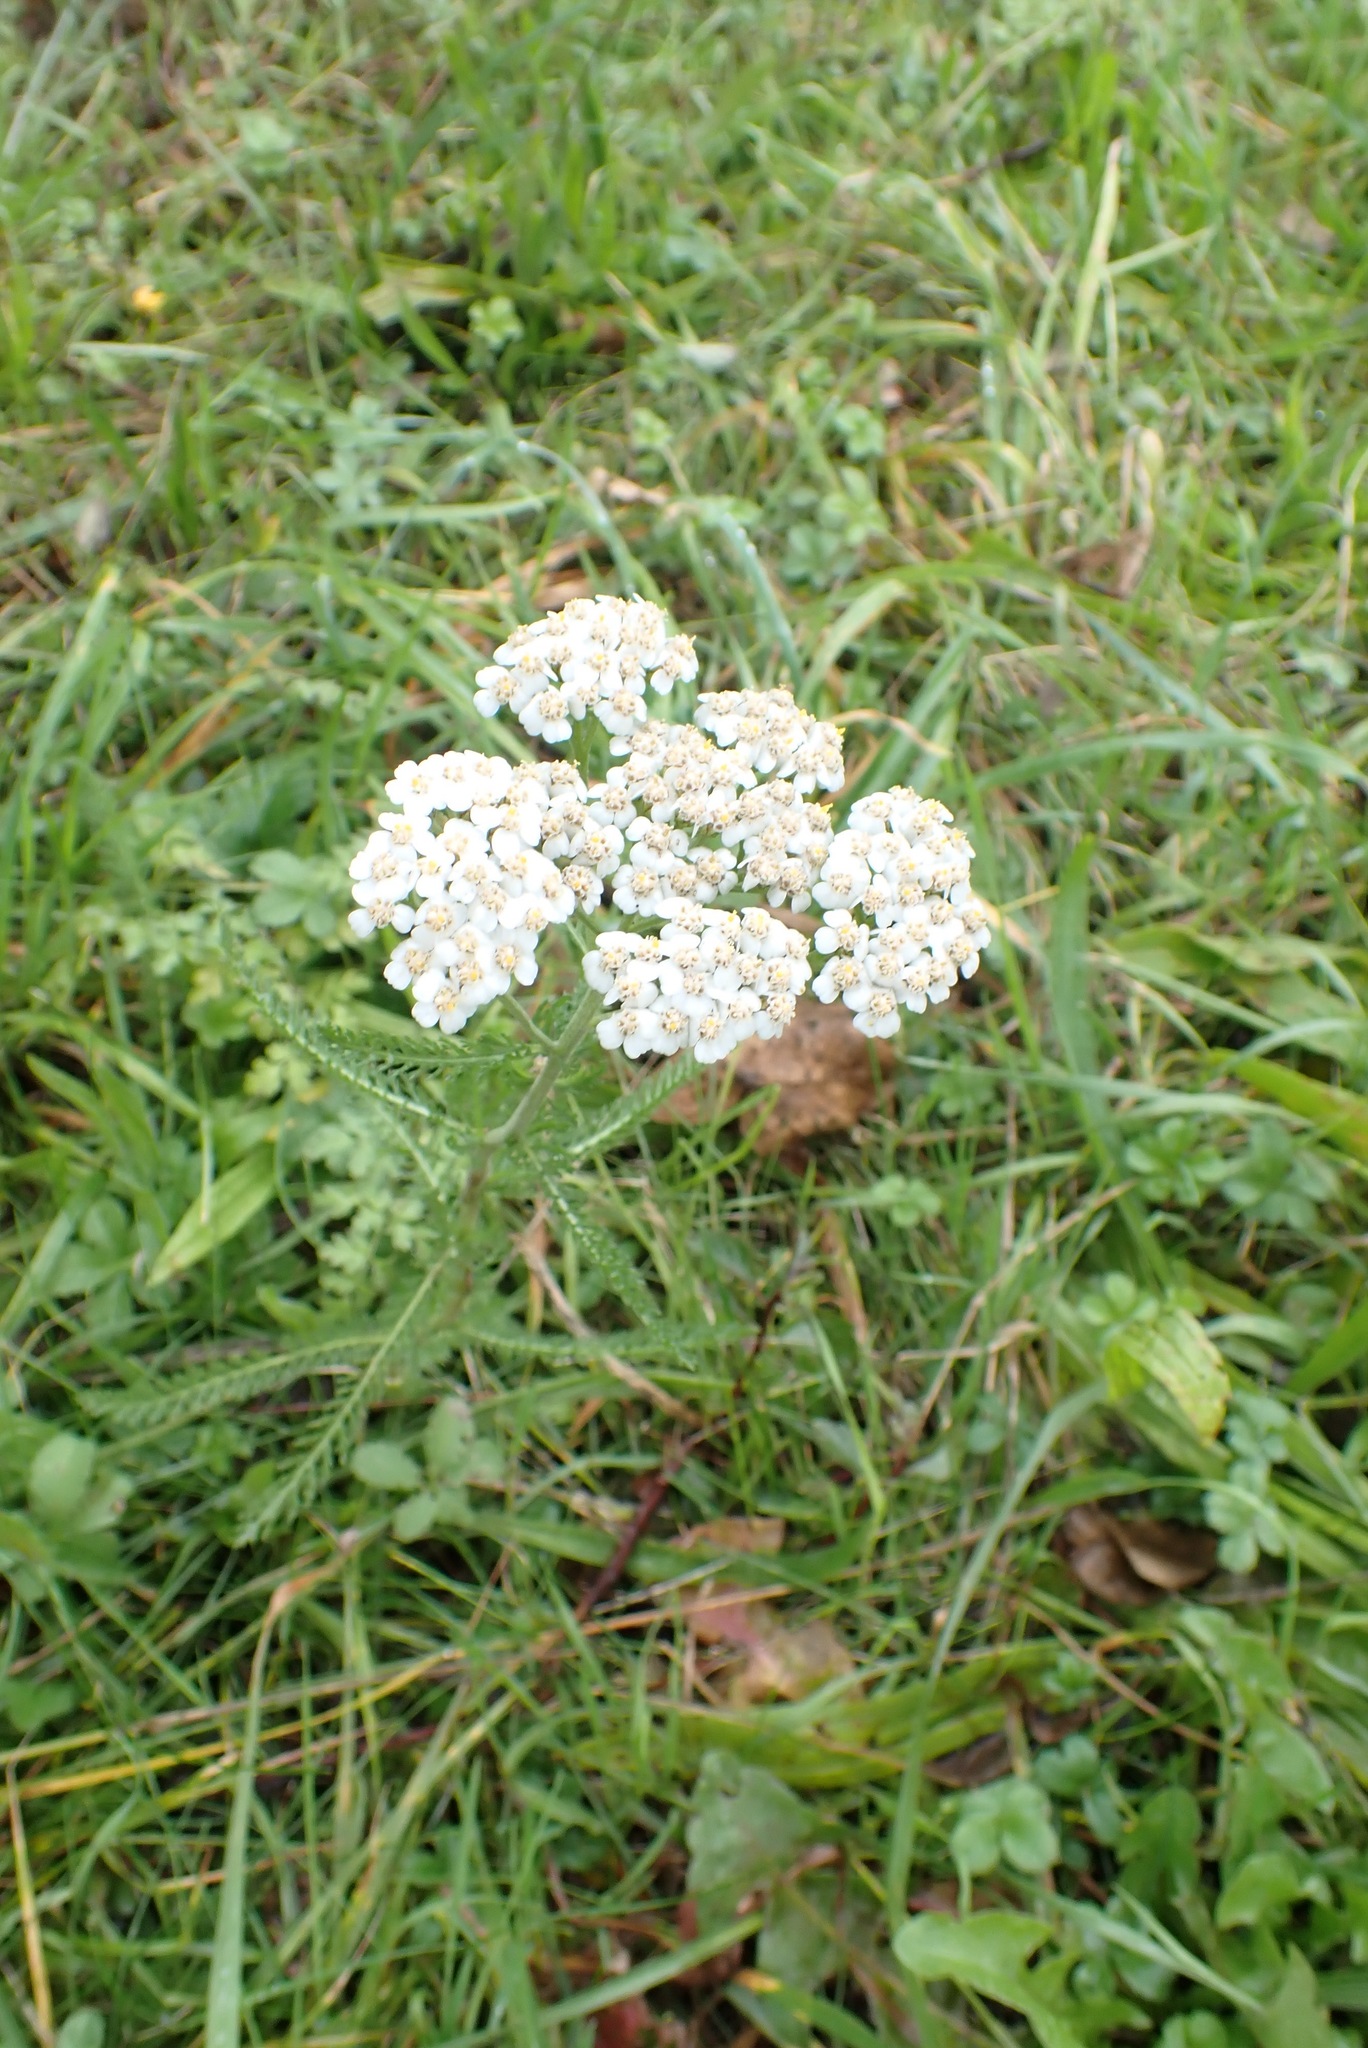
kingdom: Plantae
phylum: Tracheophyta
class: Magnoliopsida
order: Asterales
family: Asteraceae
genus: Achillea
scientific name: Achillea millefolium
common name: Yarrow
